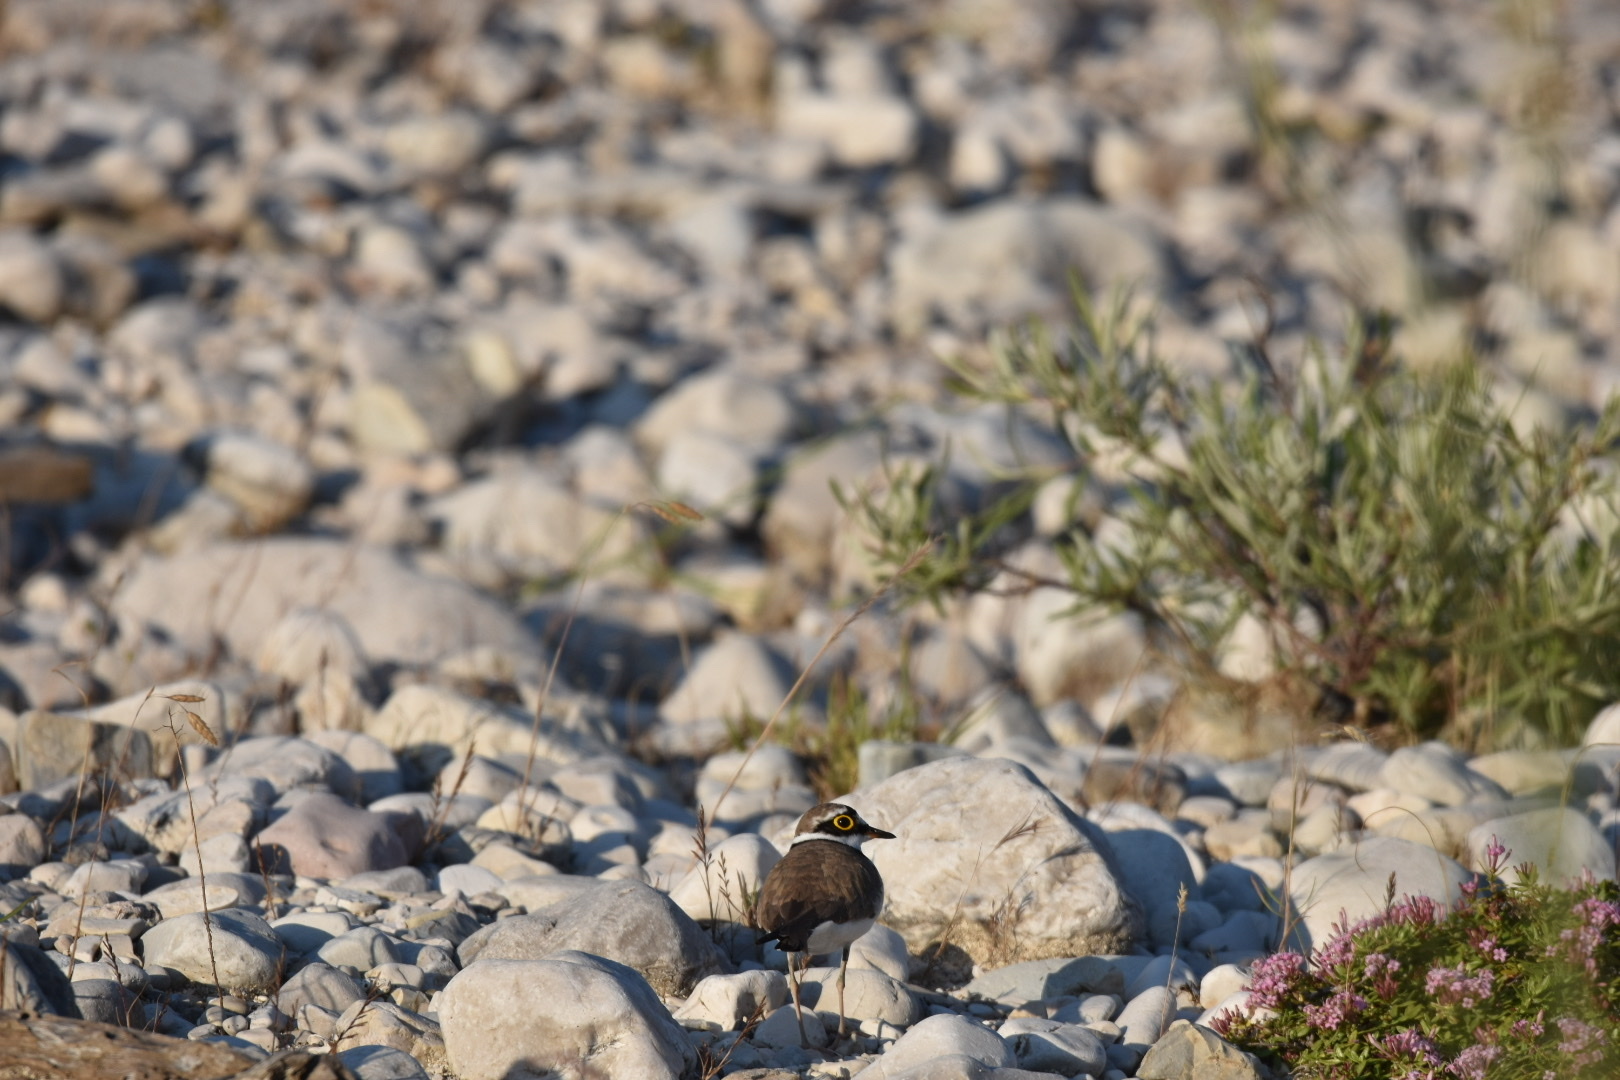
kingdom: Animalia
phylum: Chordata
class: Aves
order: Charadriiformes
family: Charadriidae
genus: Charadrius
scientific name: Charadrius dubius
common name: Little ringed plover
